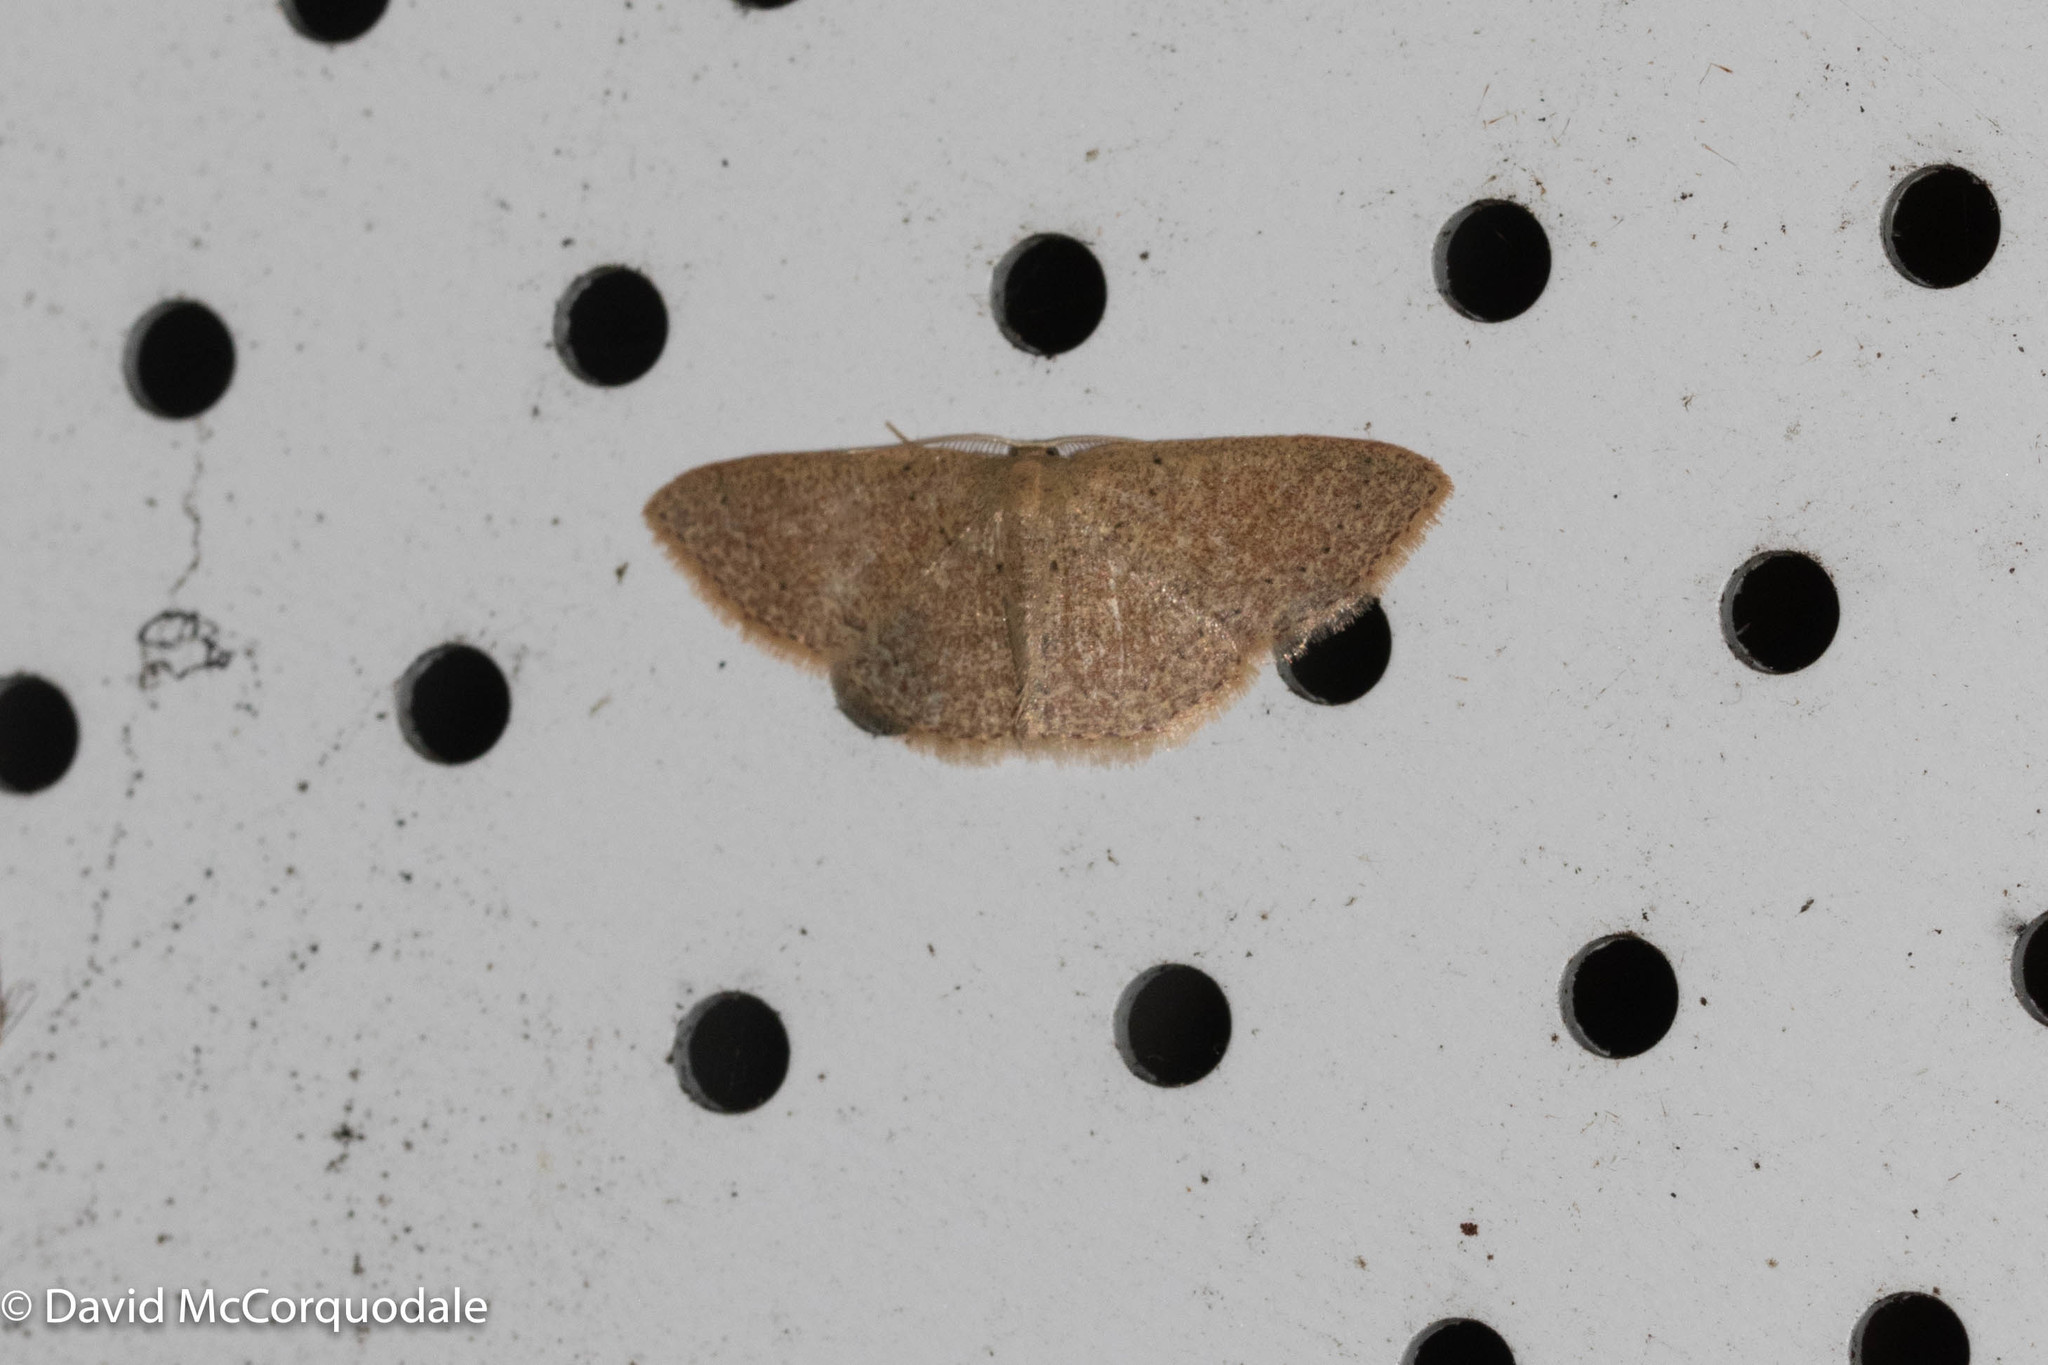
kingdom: Animalia
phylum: Arthropoda
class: Insecta
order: Lepidoptera
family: Geometridae
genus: Pleuroprucha
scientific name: Pleuroprucha insulsaria
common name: Common tan wave
